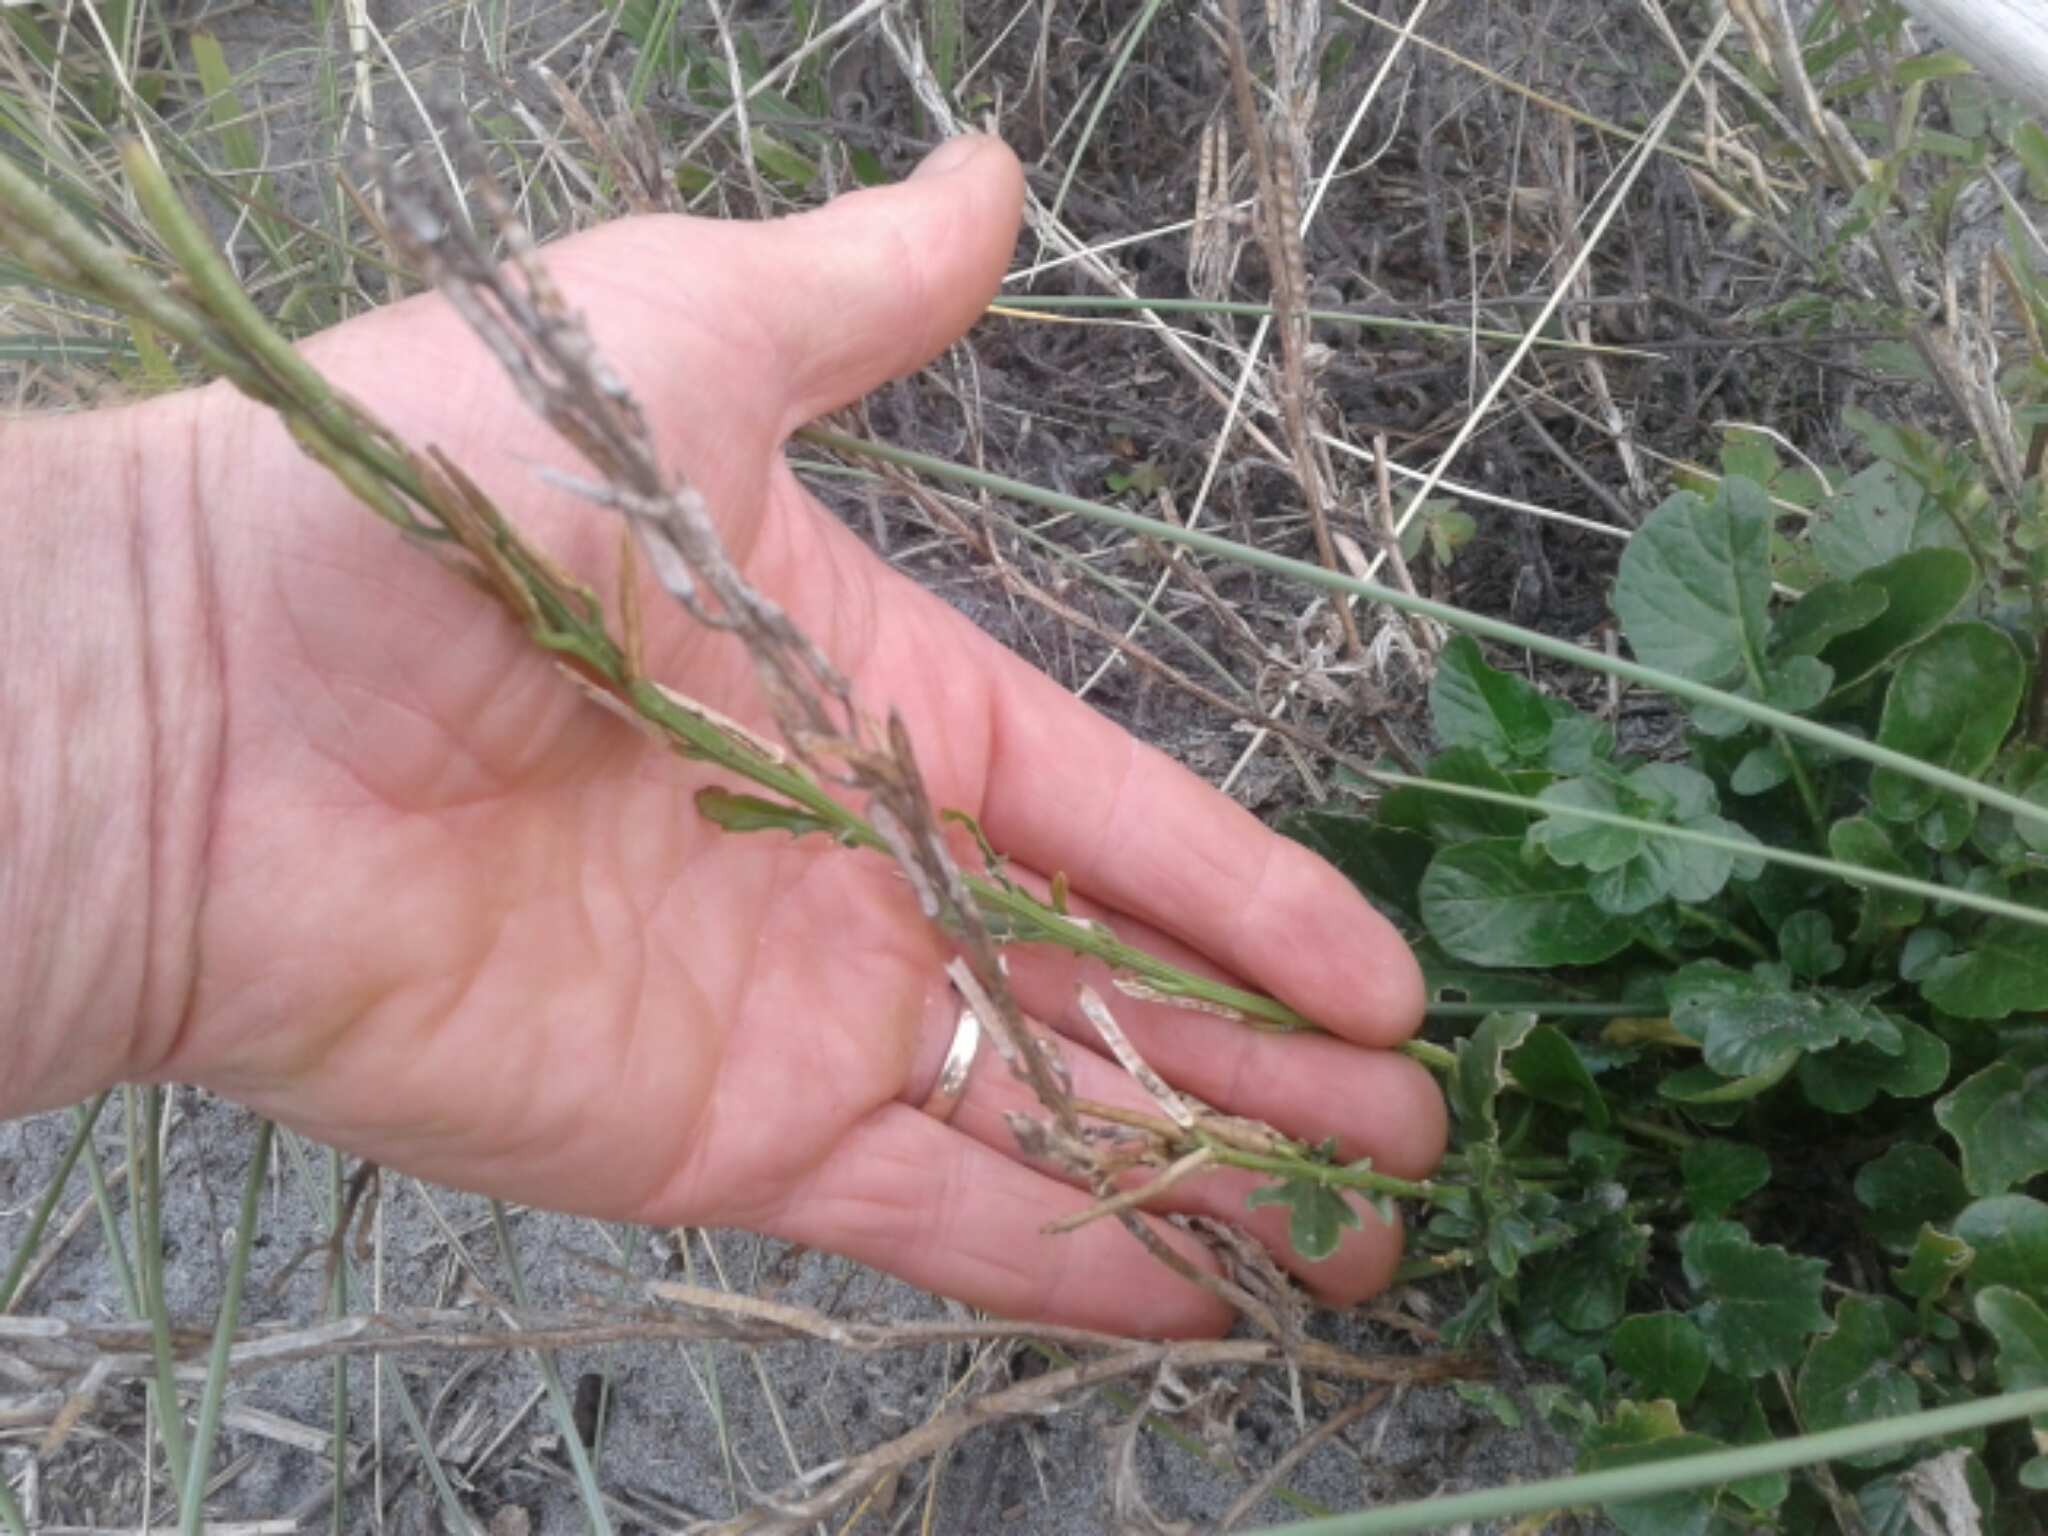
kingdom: Plantae
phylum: Tracheophyta
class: Magnoliopsida
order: Brassicales
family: Brassicaceae
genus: Barbarea
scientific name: Barbarea
